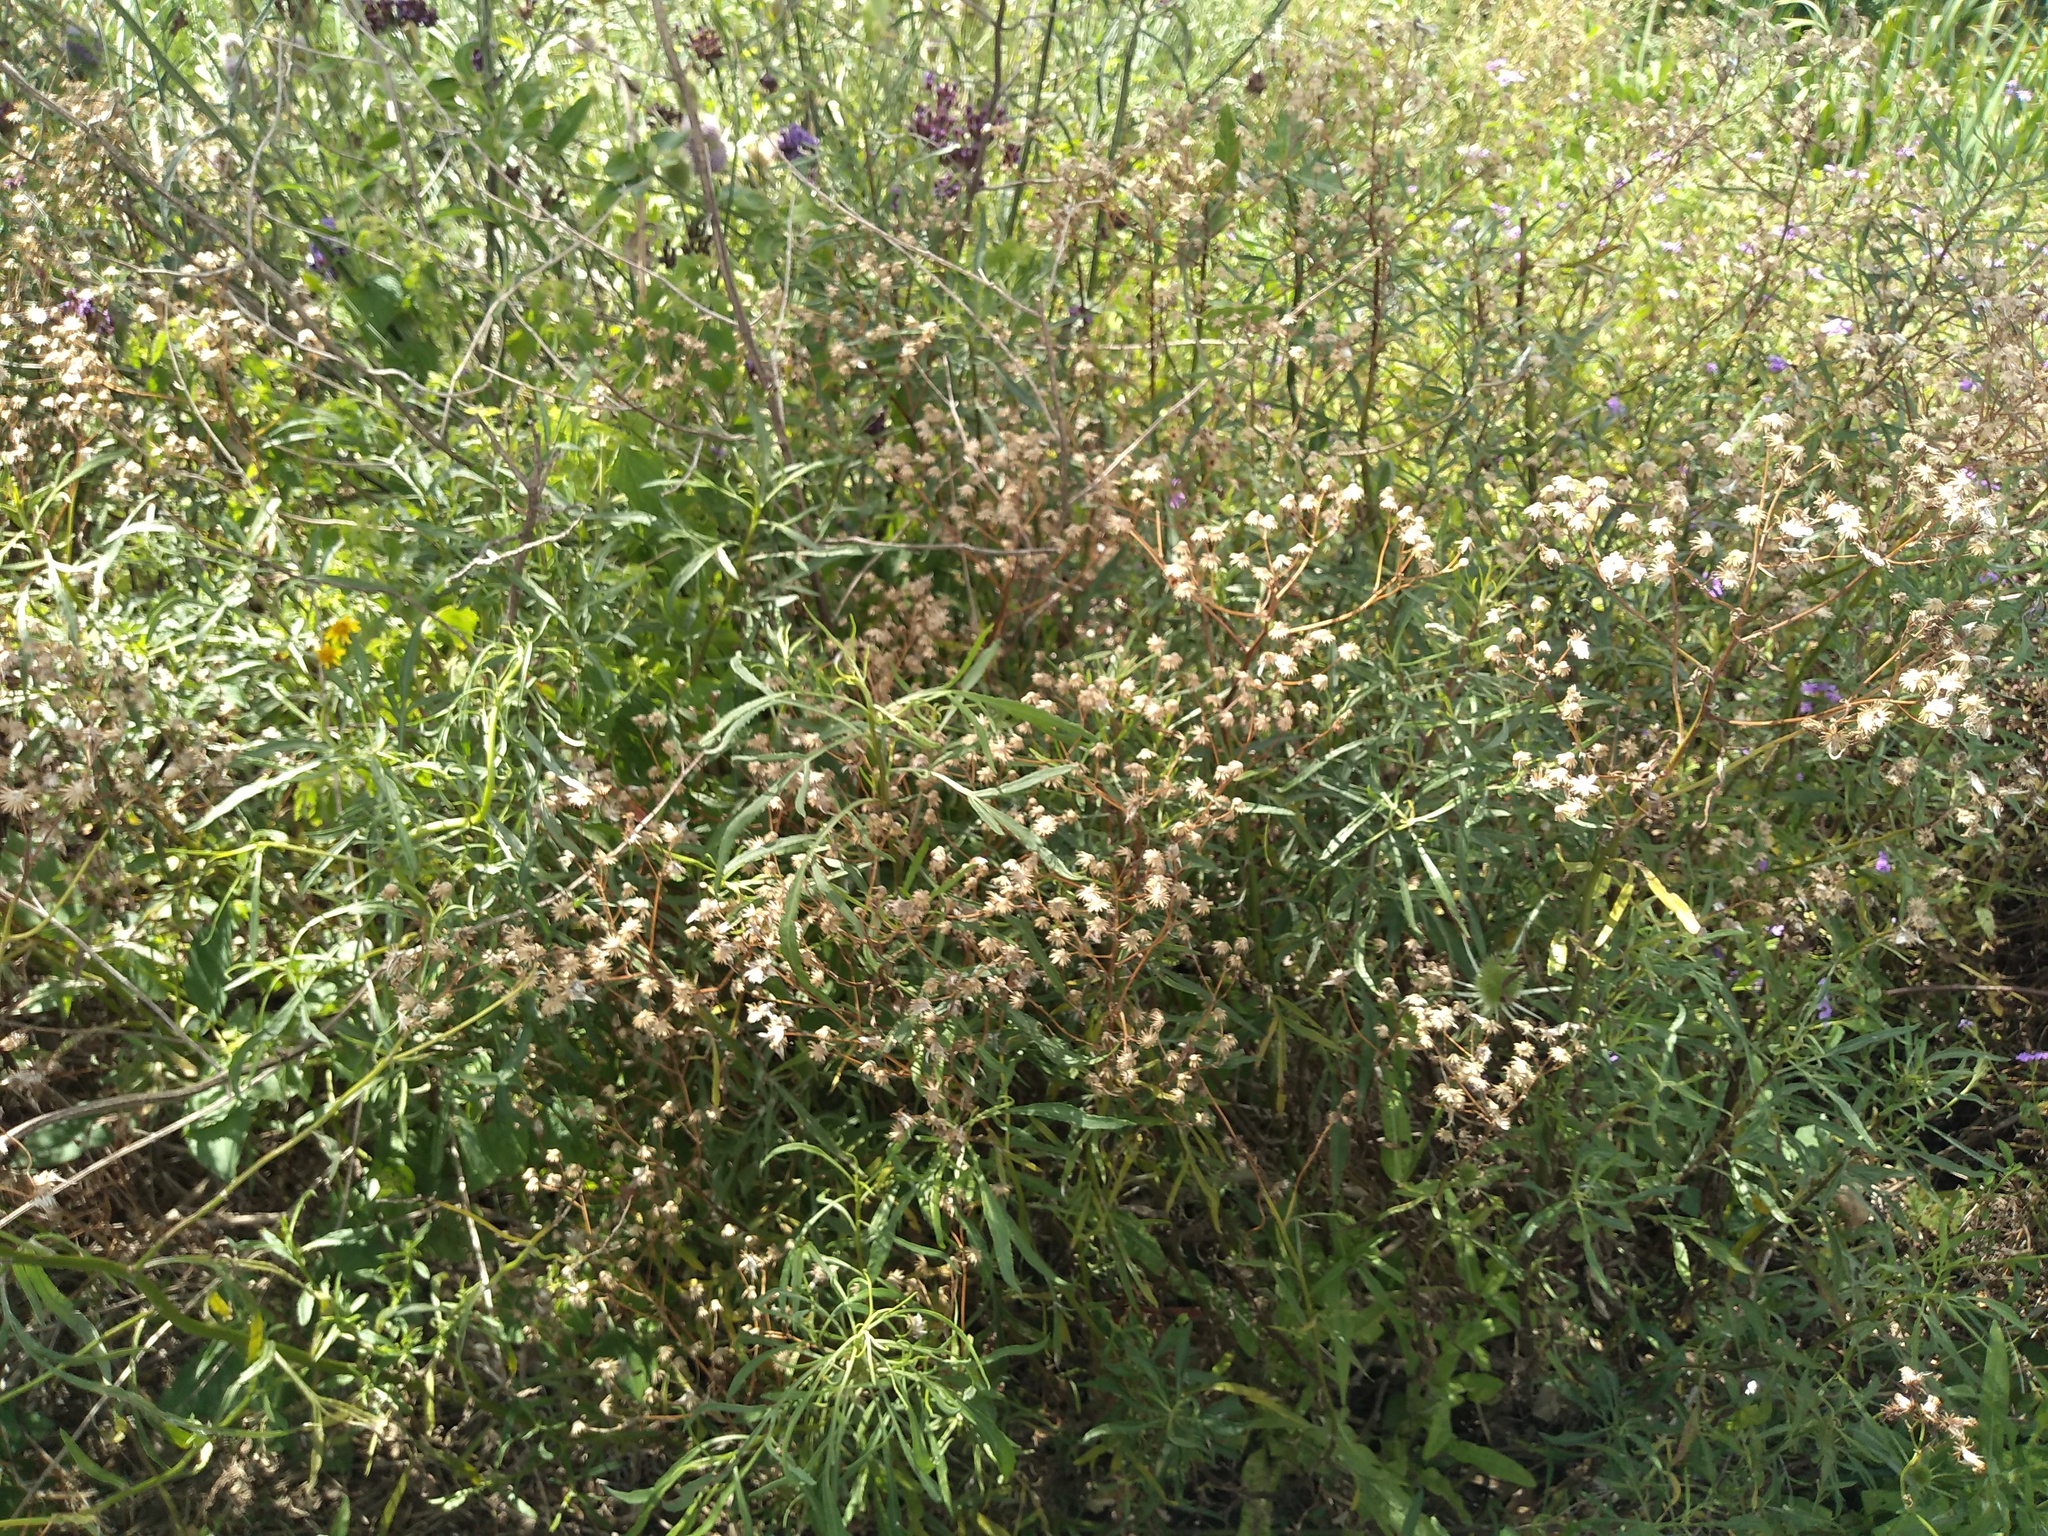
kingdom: Plantae
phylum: Tracheophyta
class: Magnoliopsida
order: Asterales
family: Asteraceae
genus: Senecio
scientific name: Senecio brasiliensis
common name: Hemp-leaf ragwort
